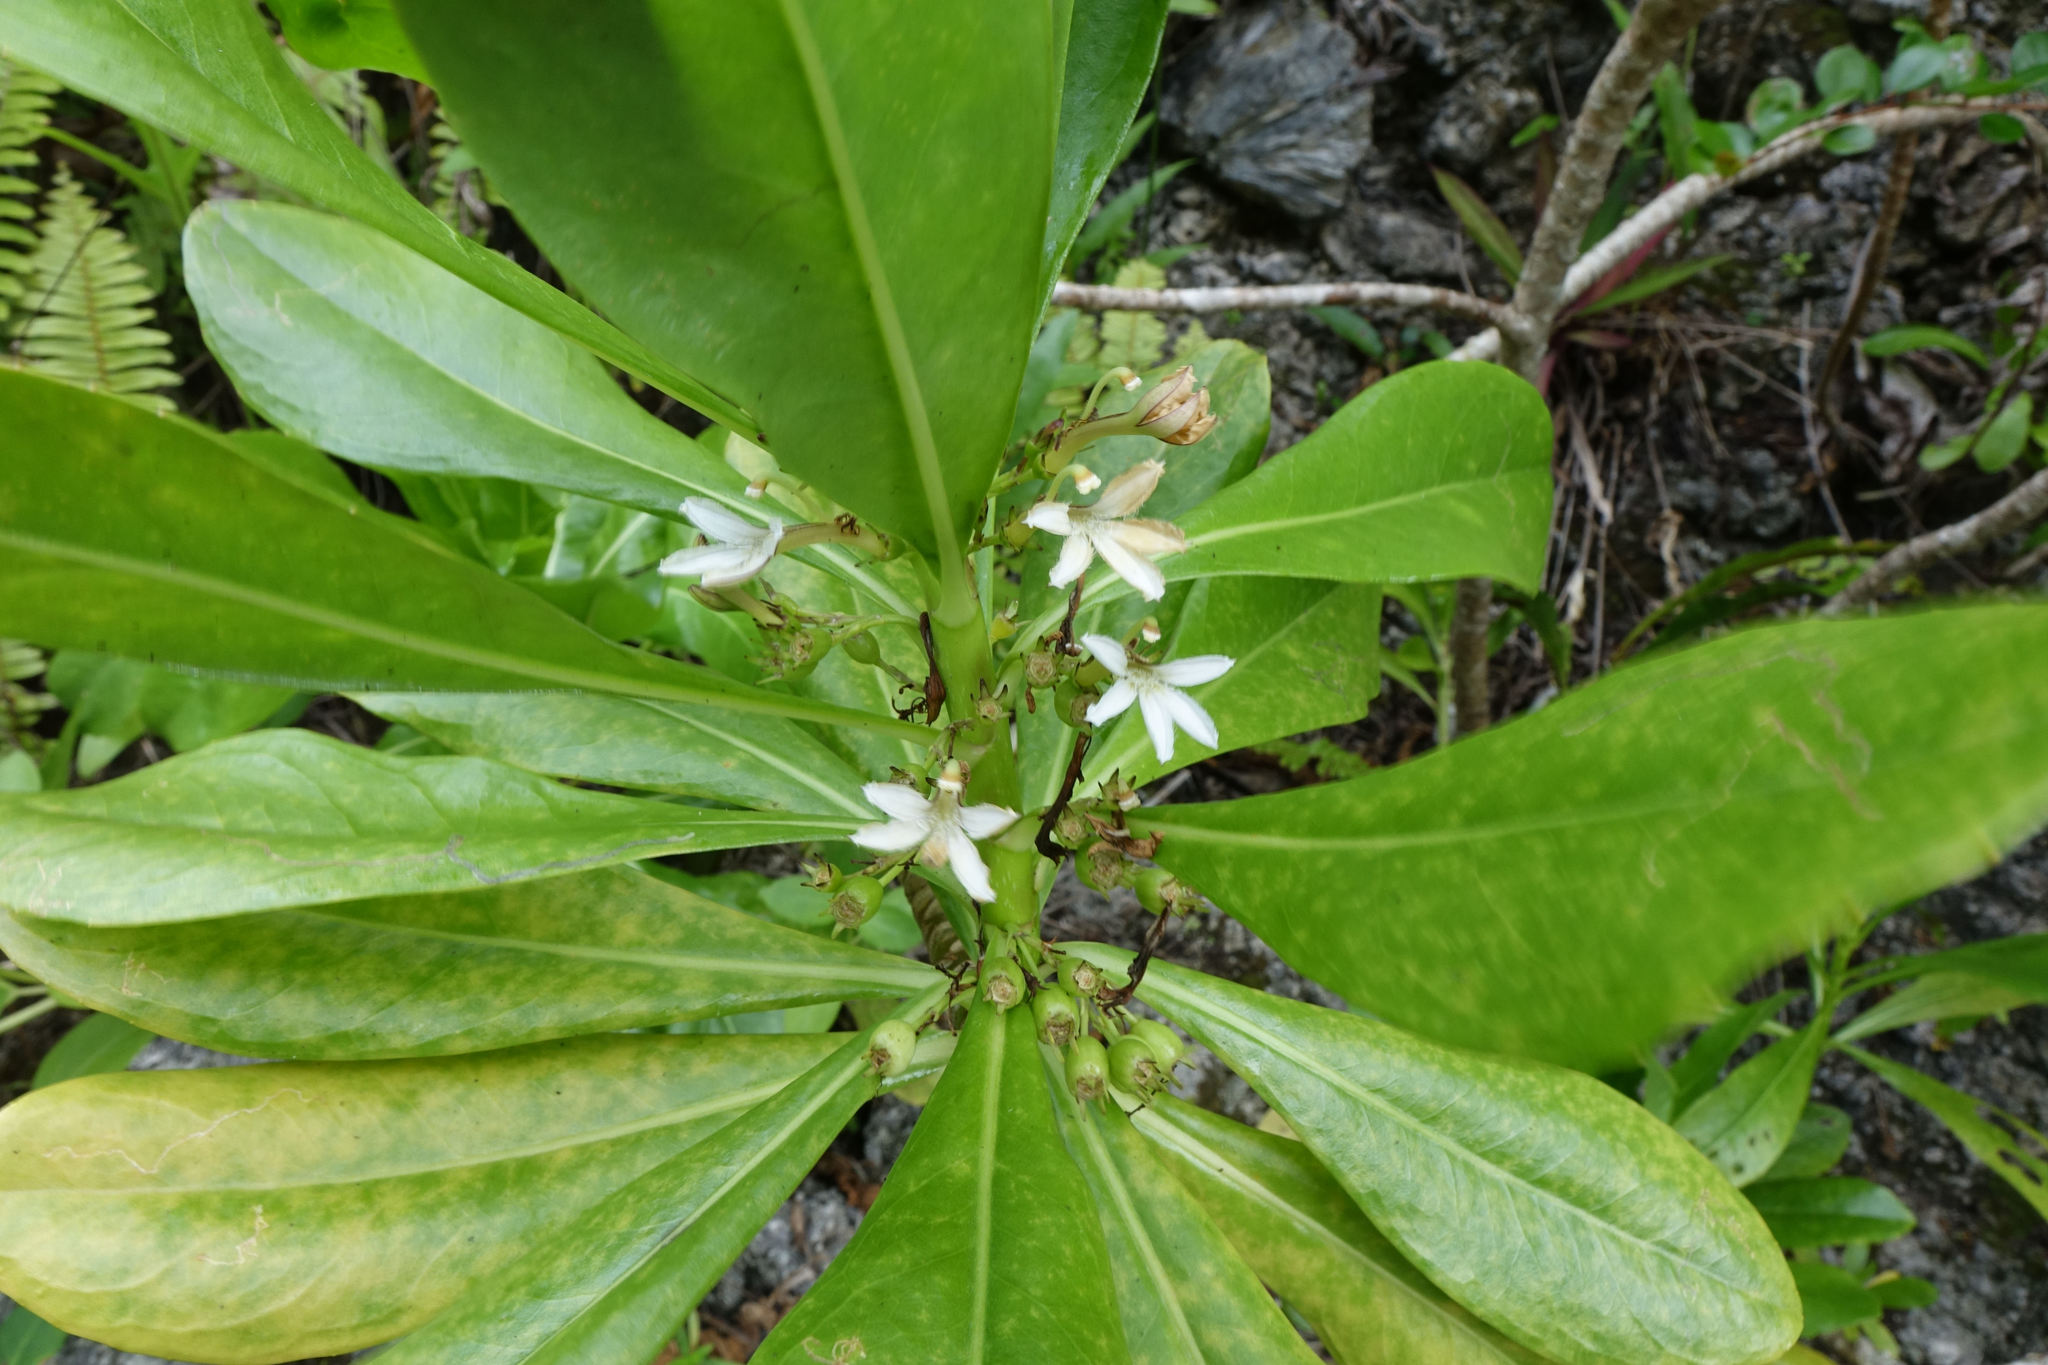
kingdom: Plantae
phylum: Tracheophyta
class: Magnoliopsida
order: Asterales
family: Goodeniaceae
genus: Scaevola
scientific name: Scaevola taccada
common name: Sea lettucetree
